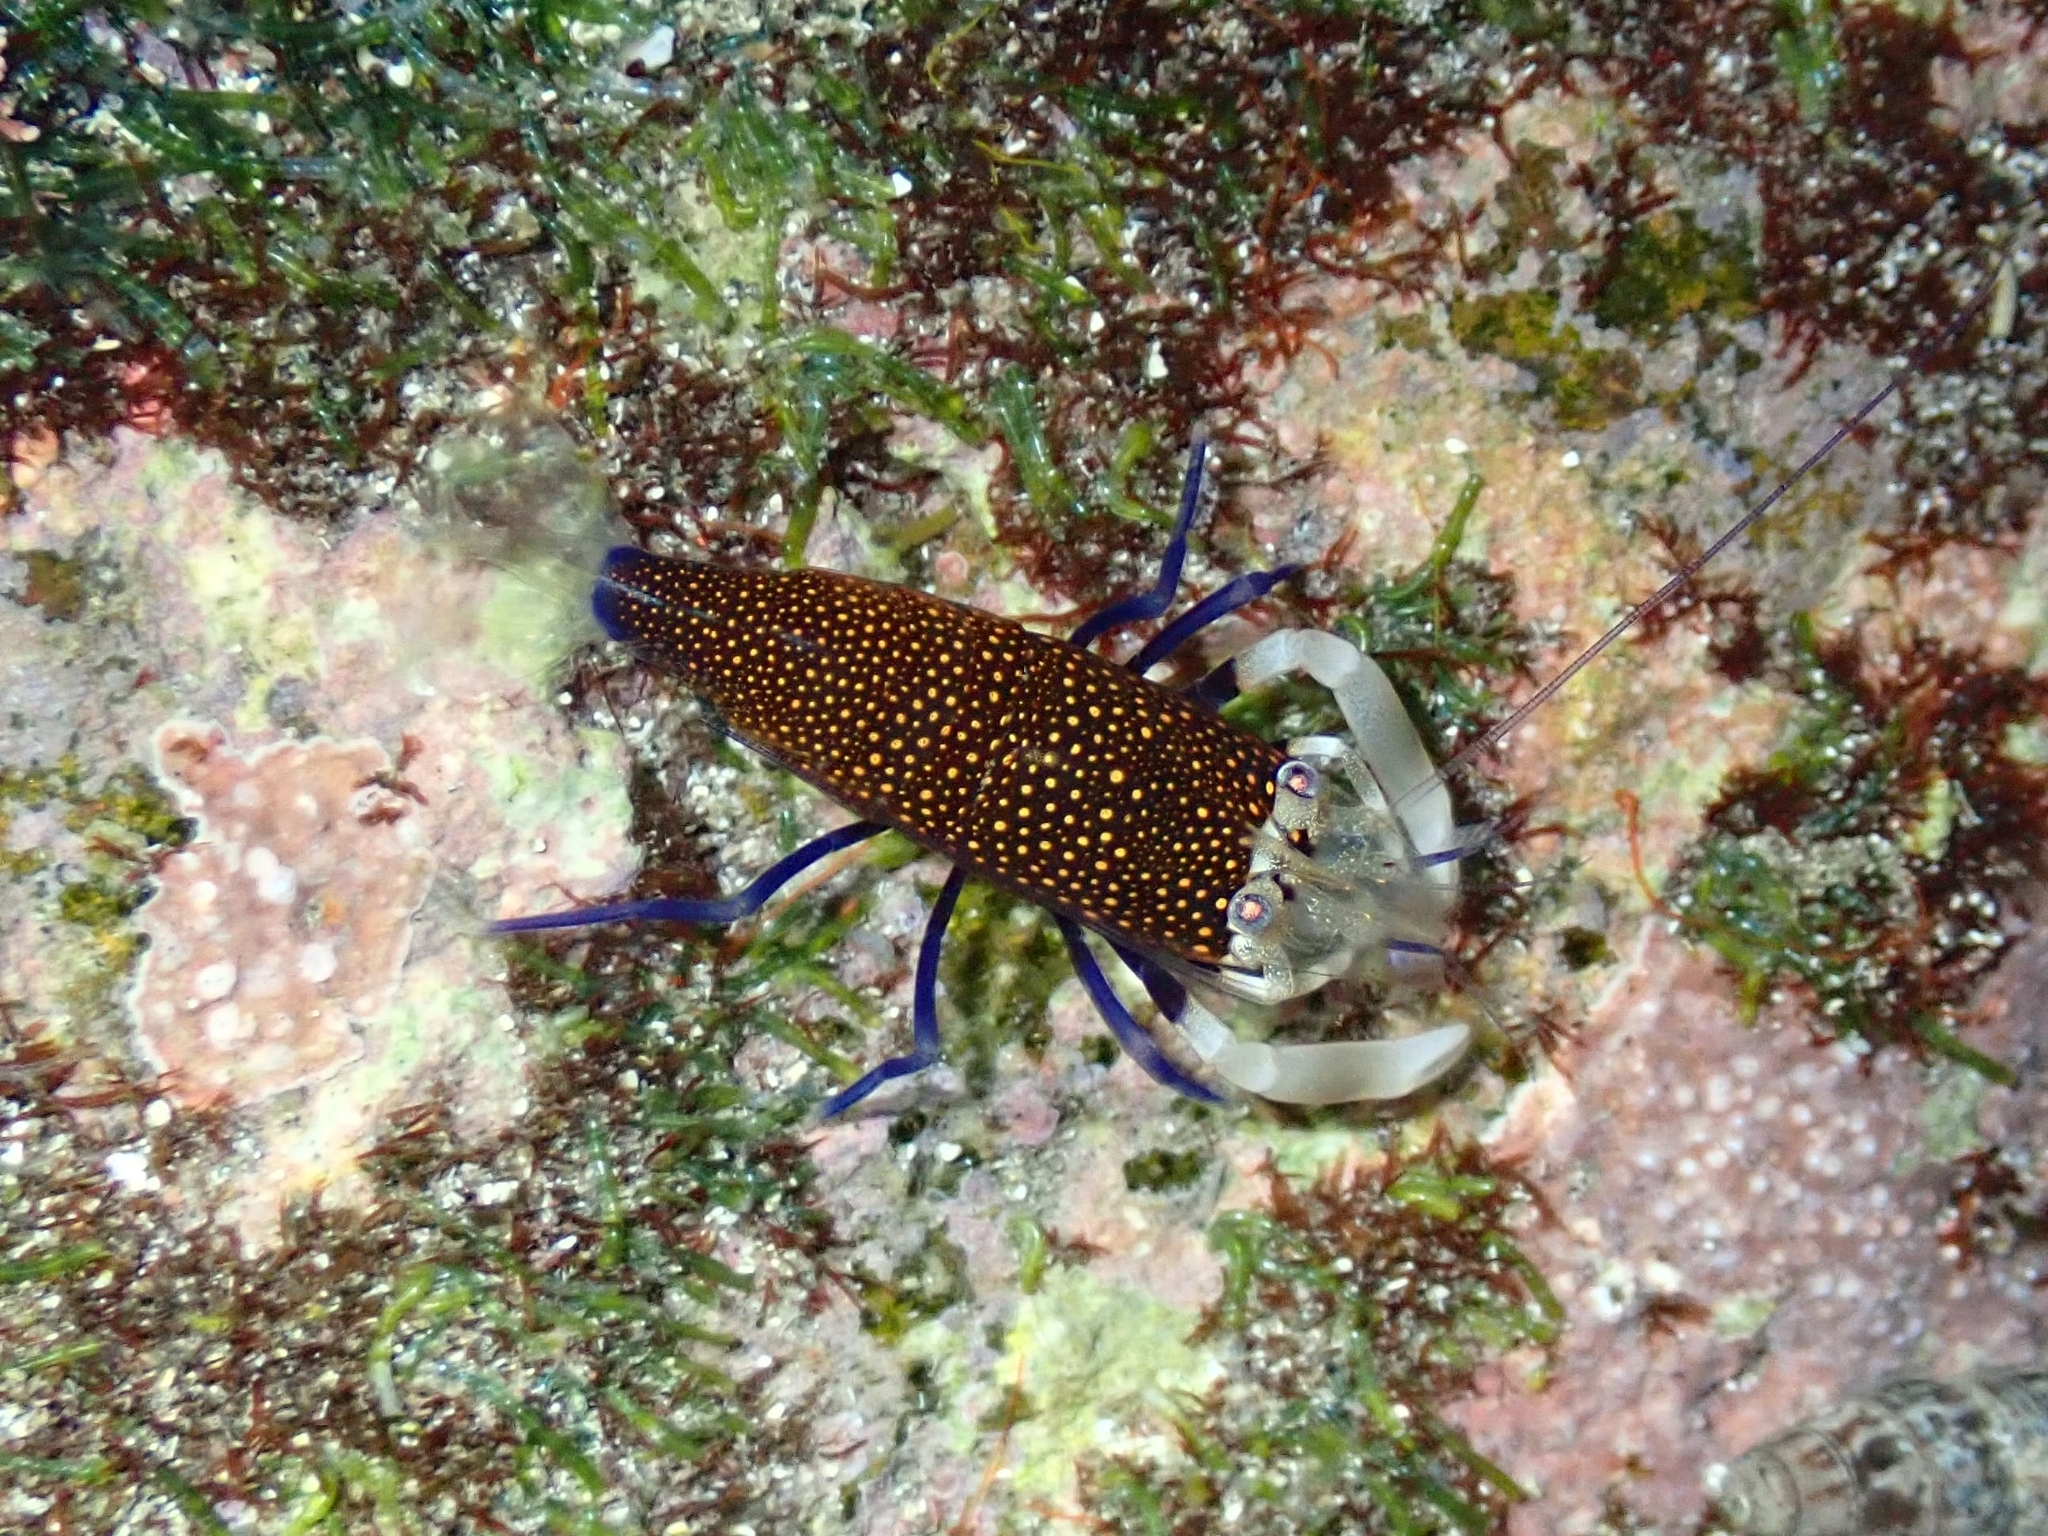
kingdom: Animalia
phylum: Arthropoda
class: Malacostraca
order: Decapoda
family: Palaemonidae
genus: Gnathophyllum
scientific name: Gnathophyllum elegans
